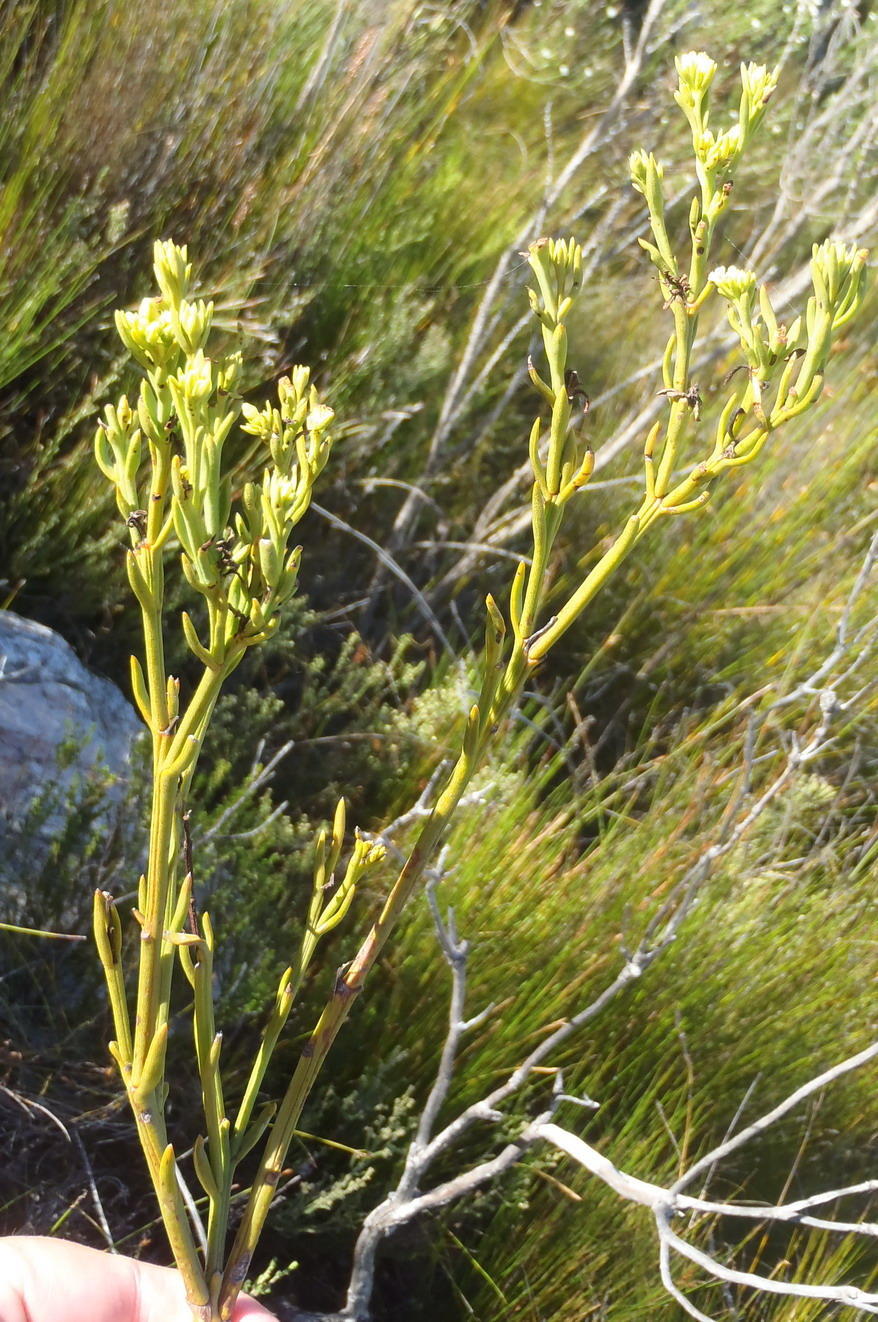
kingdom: Plantae
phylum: Tracheophyta
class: Magnoliopsida
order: Santalales
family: Thesiaceae
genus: Thesium
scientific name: Thesium strictum
